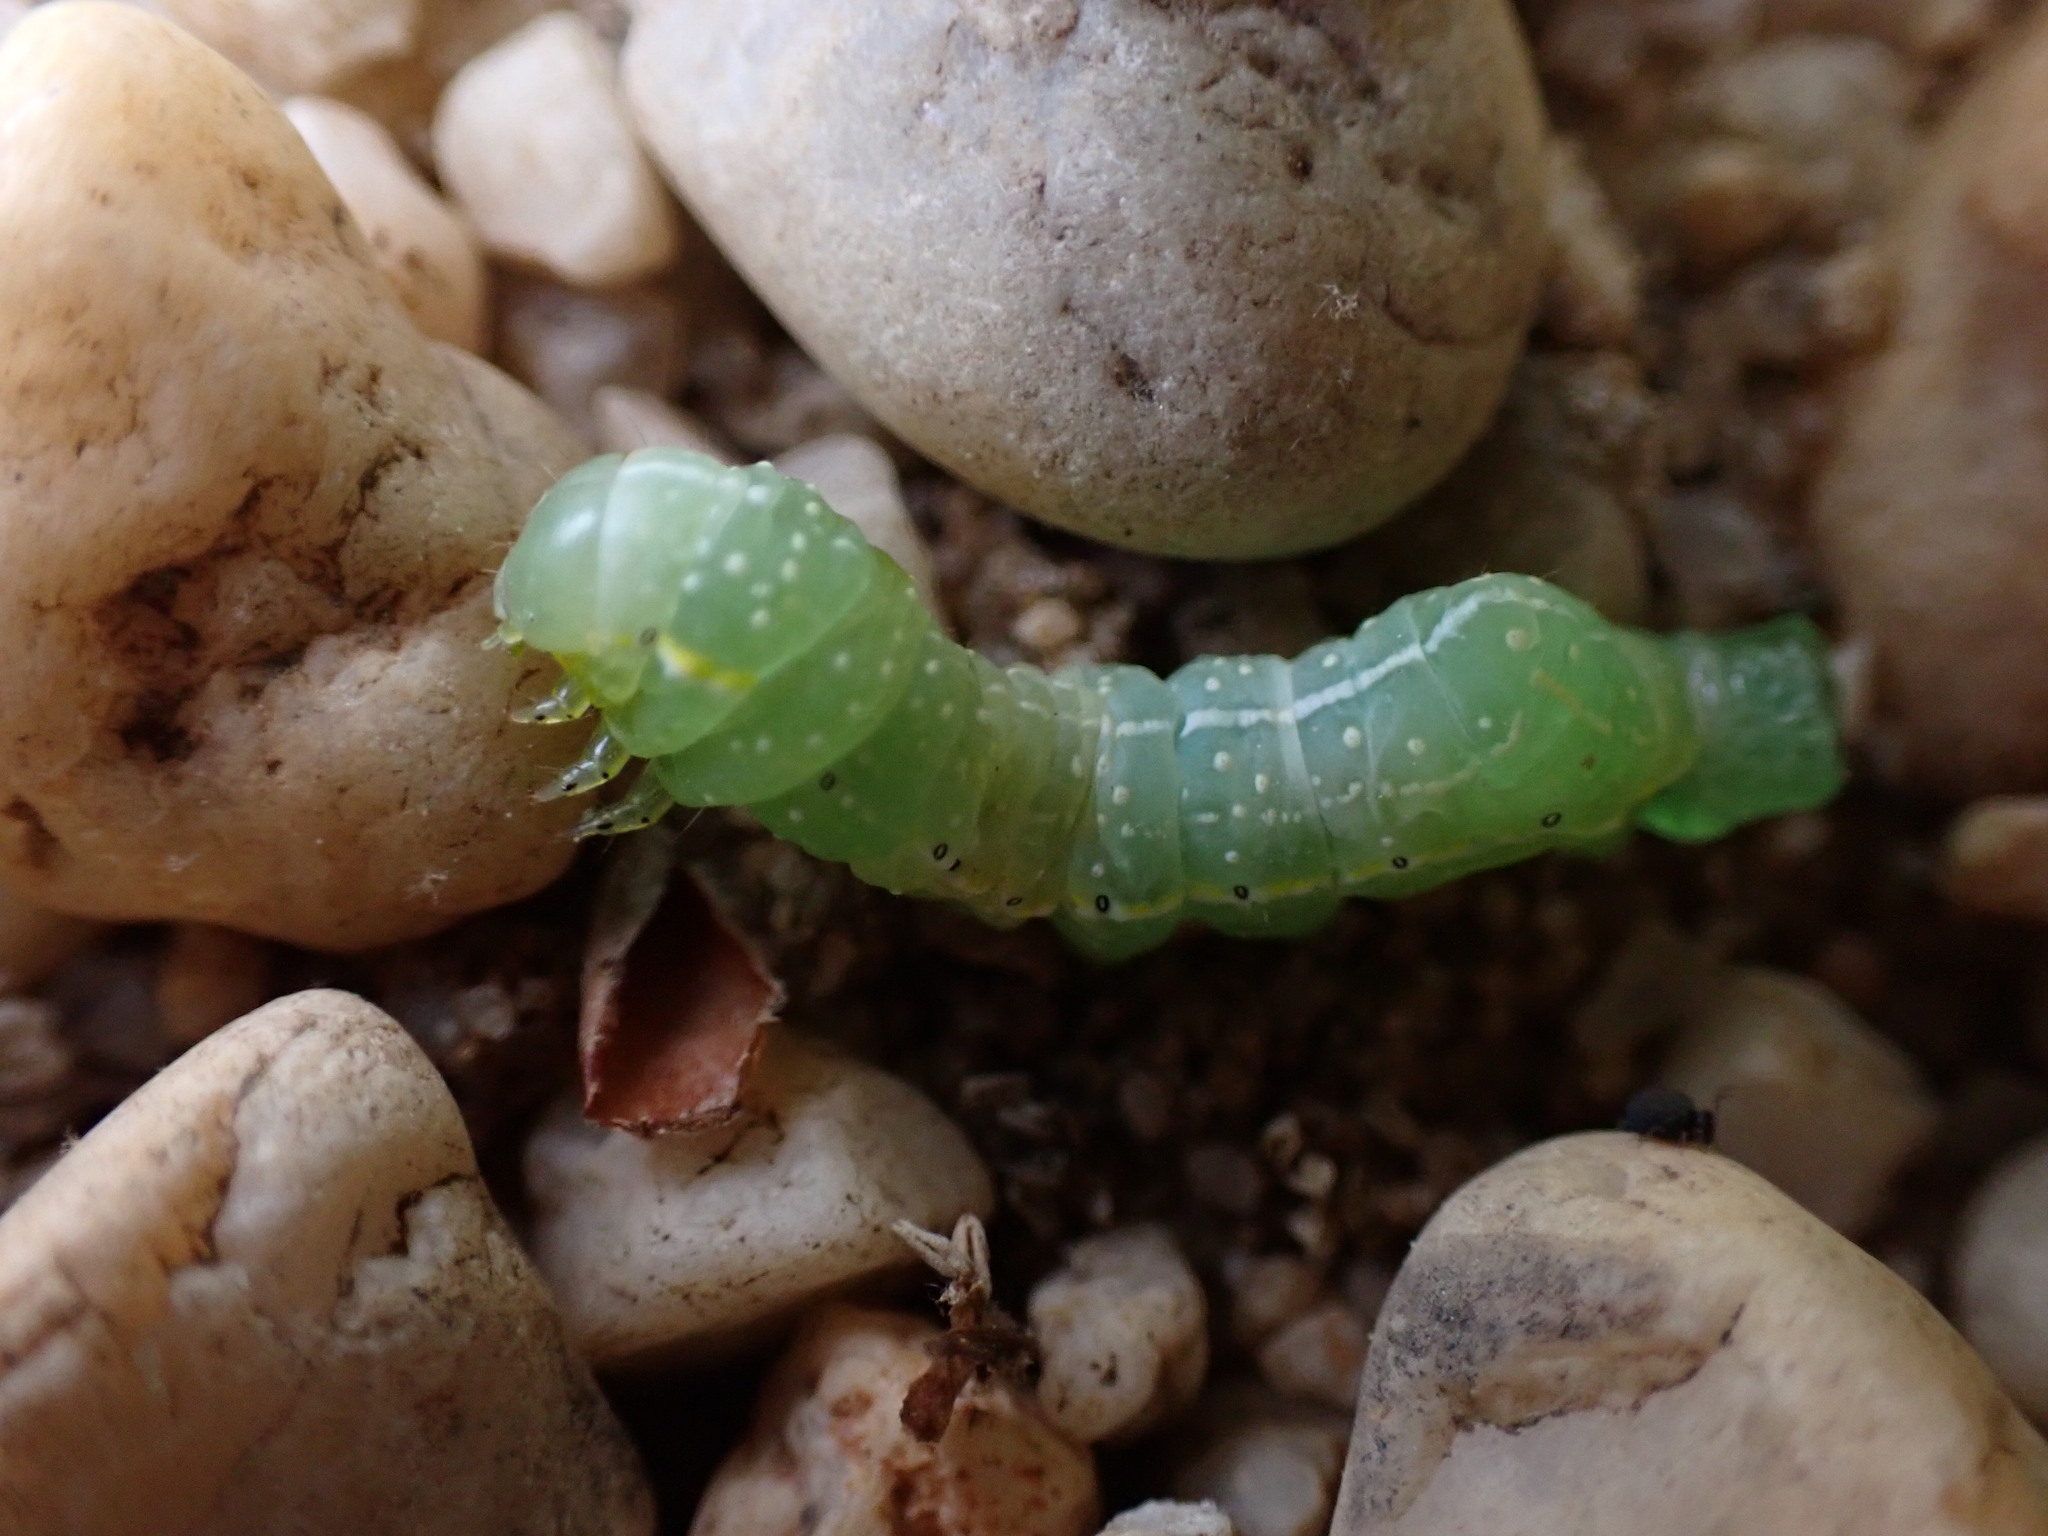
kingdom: Animalia
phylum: Arthropoda
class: Insecta
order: Lepidoptera
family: Noctuidae
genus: Amphipyra
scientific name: Amphipyra pyramidoides
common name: American copper underwing
